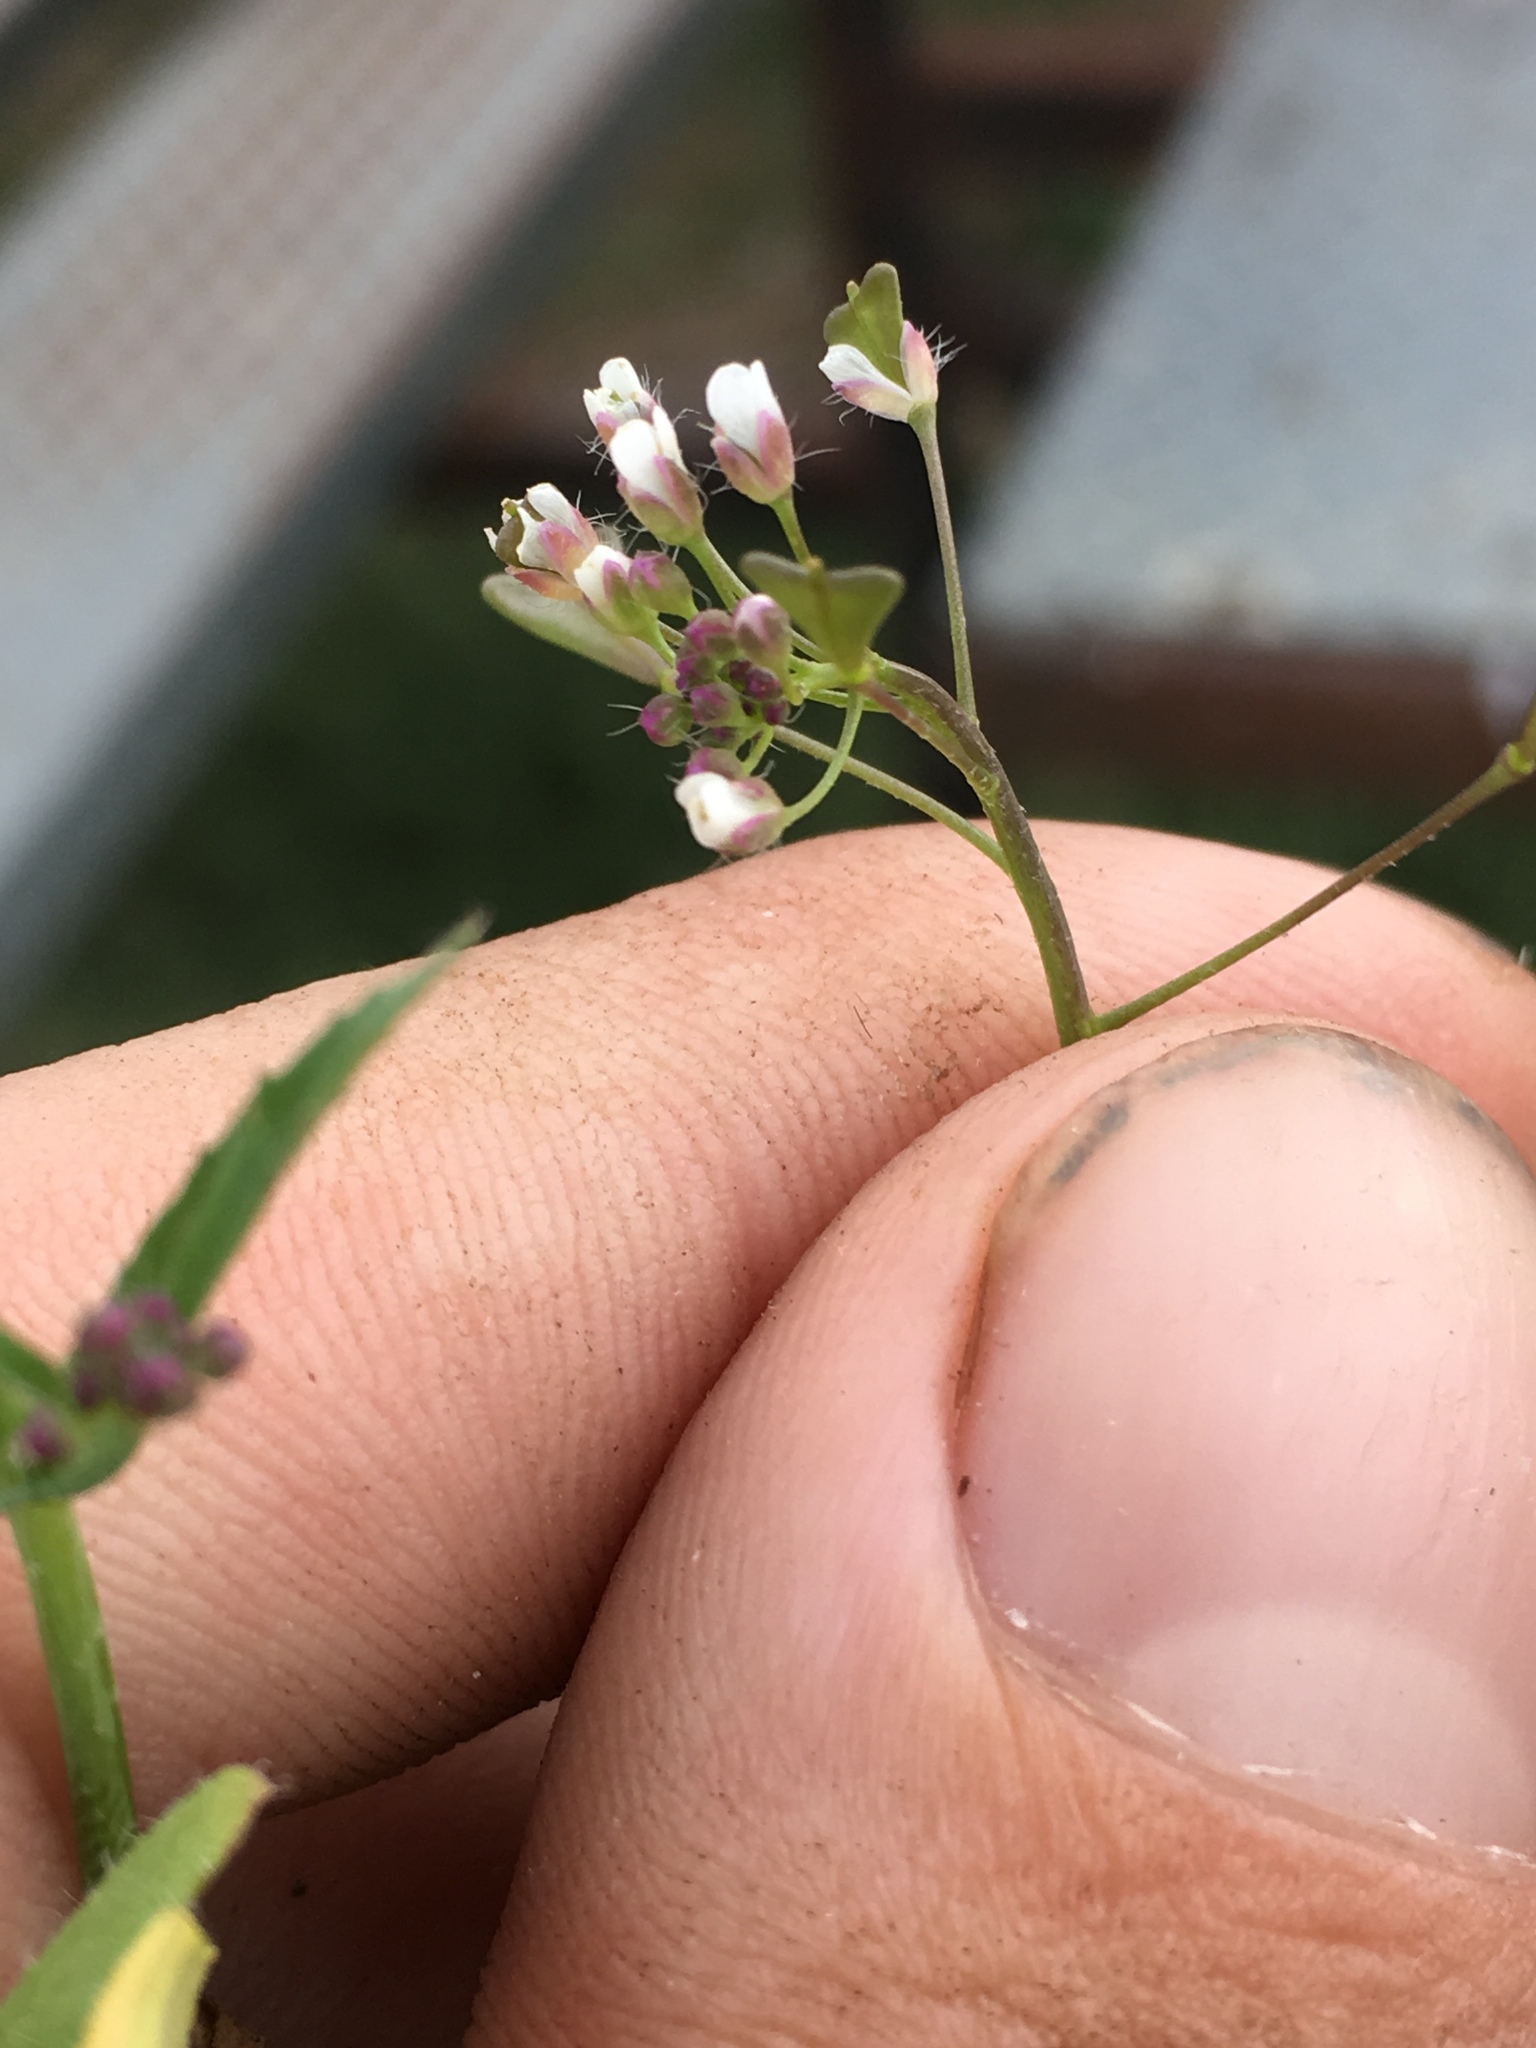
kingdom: Plantae
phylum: Tracheophyta
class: Magnoliopsida
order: Brassicales
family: Brassicaceae
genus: Capsella
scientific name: Capsella bursa-pastoris
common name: Shepherd's purse
